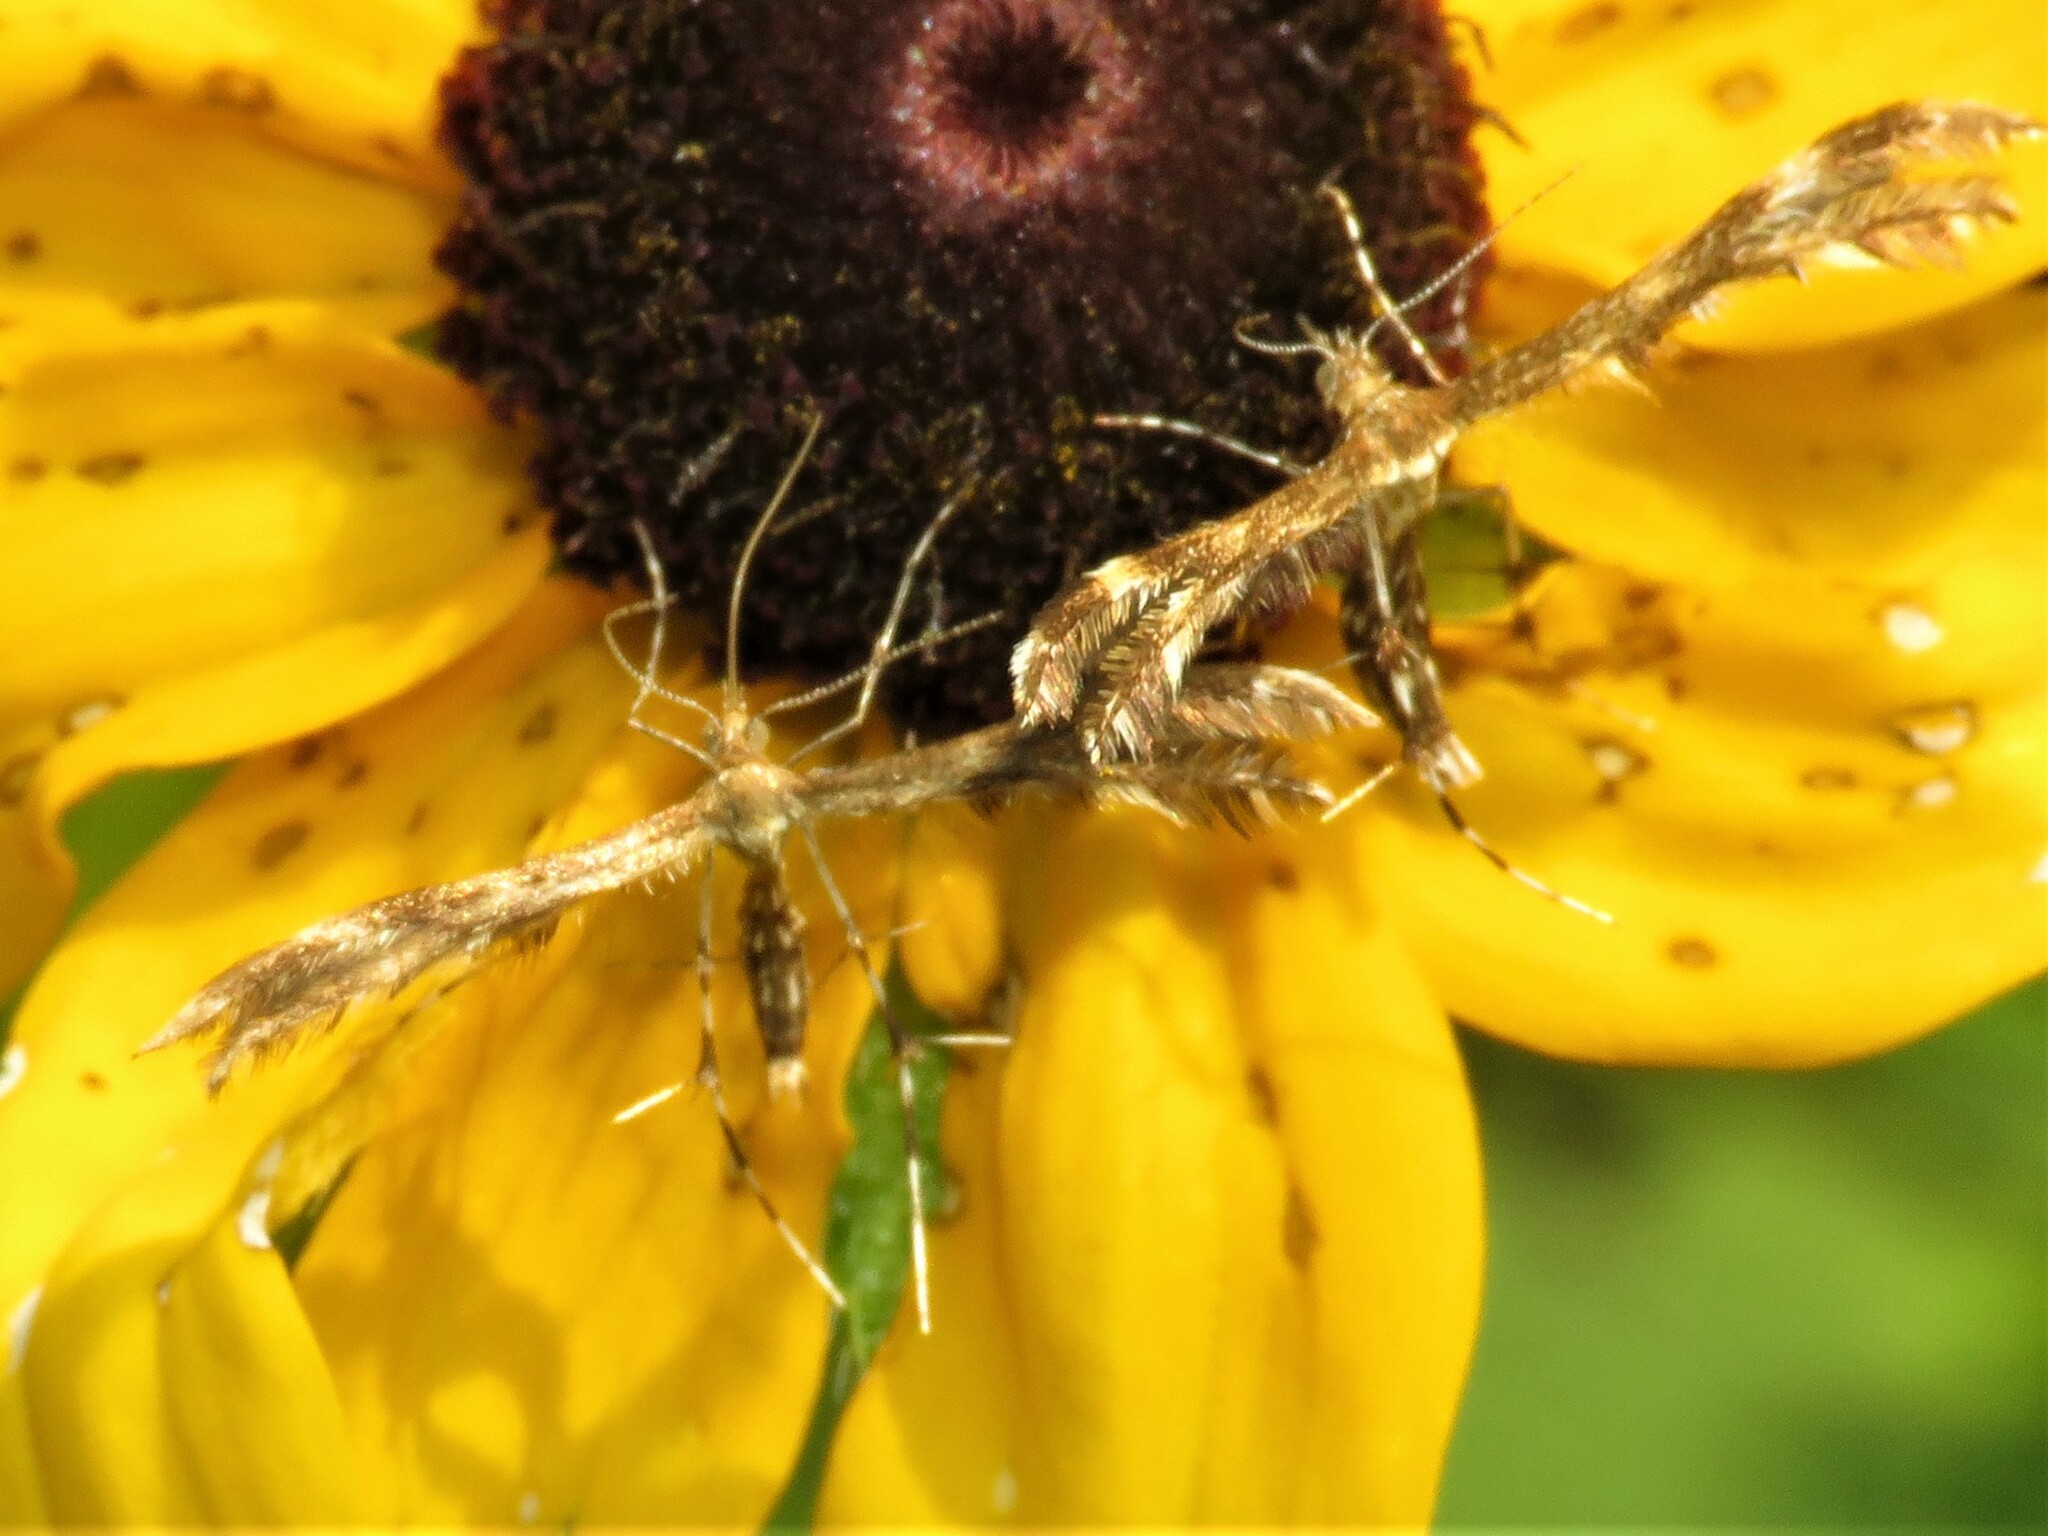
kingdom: Animalia
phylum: Arthropoda
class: Insecta
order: Lepidoptera
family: Pterophoridae
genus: Dejongia
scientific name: Dejongia lobidactylus
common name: Lobed plume moth
